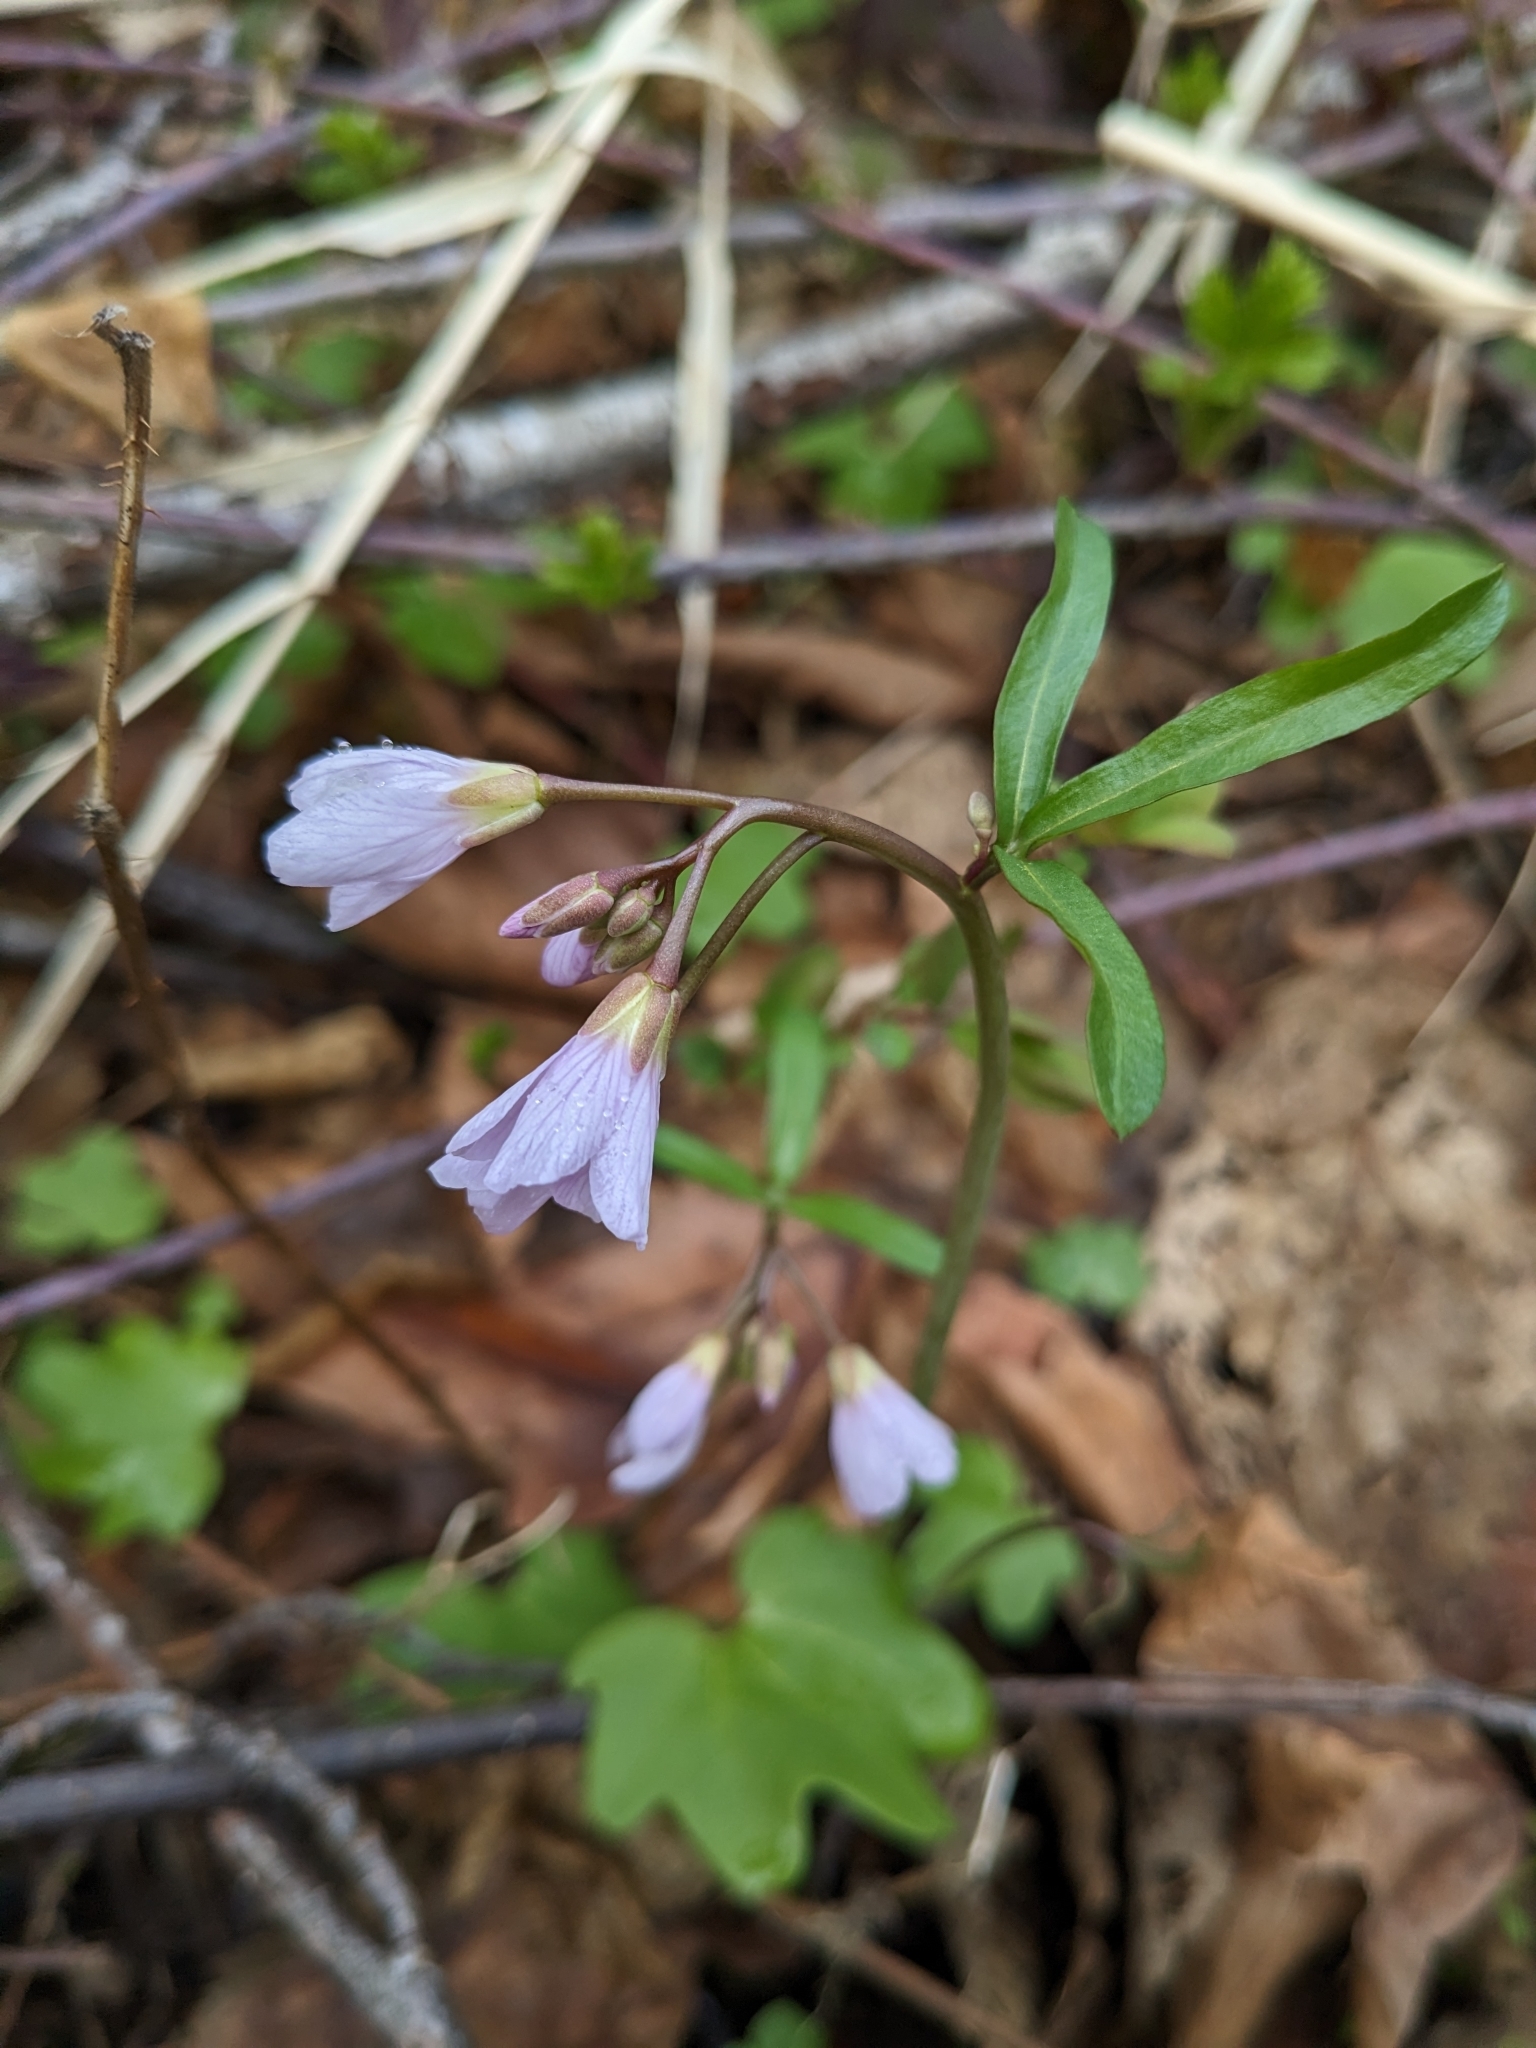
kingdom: Plantae
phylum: Tracheophyta
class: Magnoliopsida
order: Brassicales
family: Brassicaceae
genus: Cardamine
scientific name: Cardamine nuttallii
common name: Nuttall's toothwort
